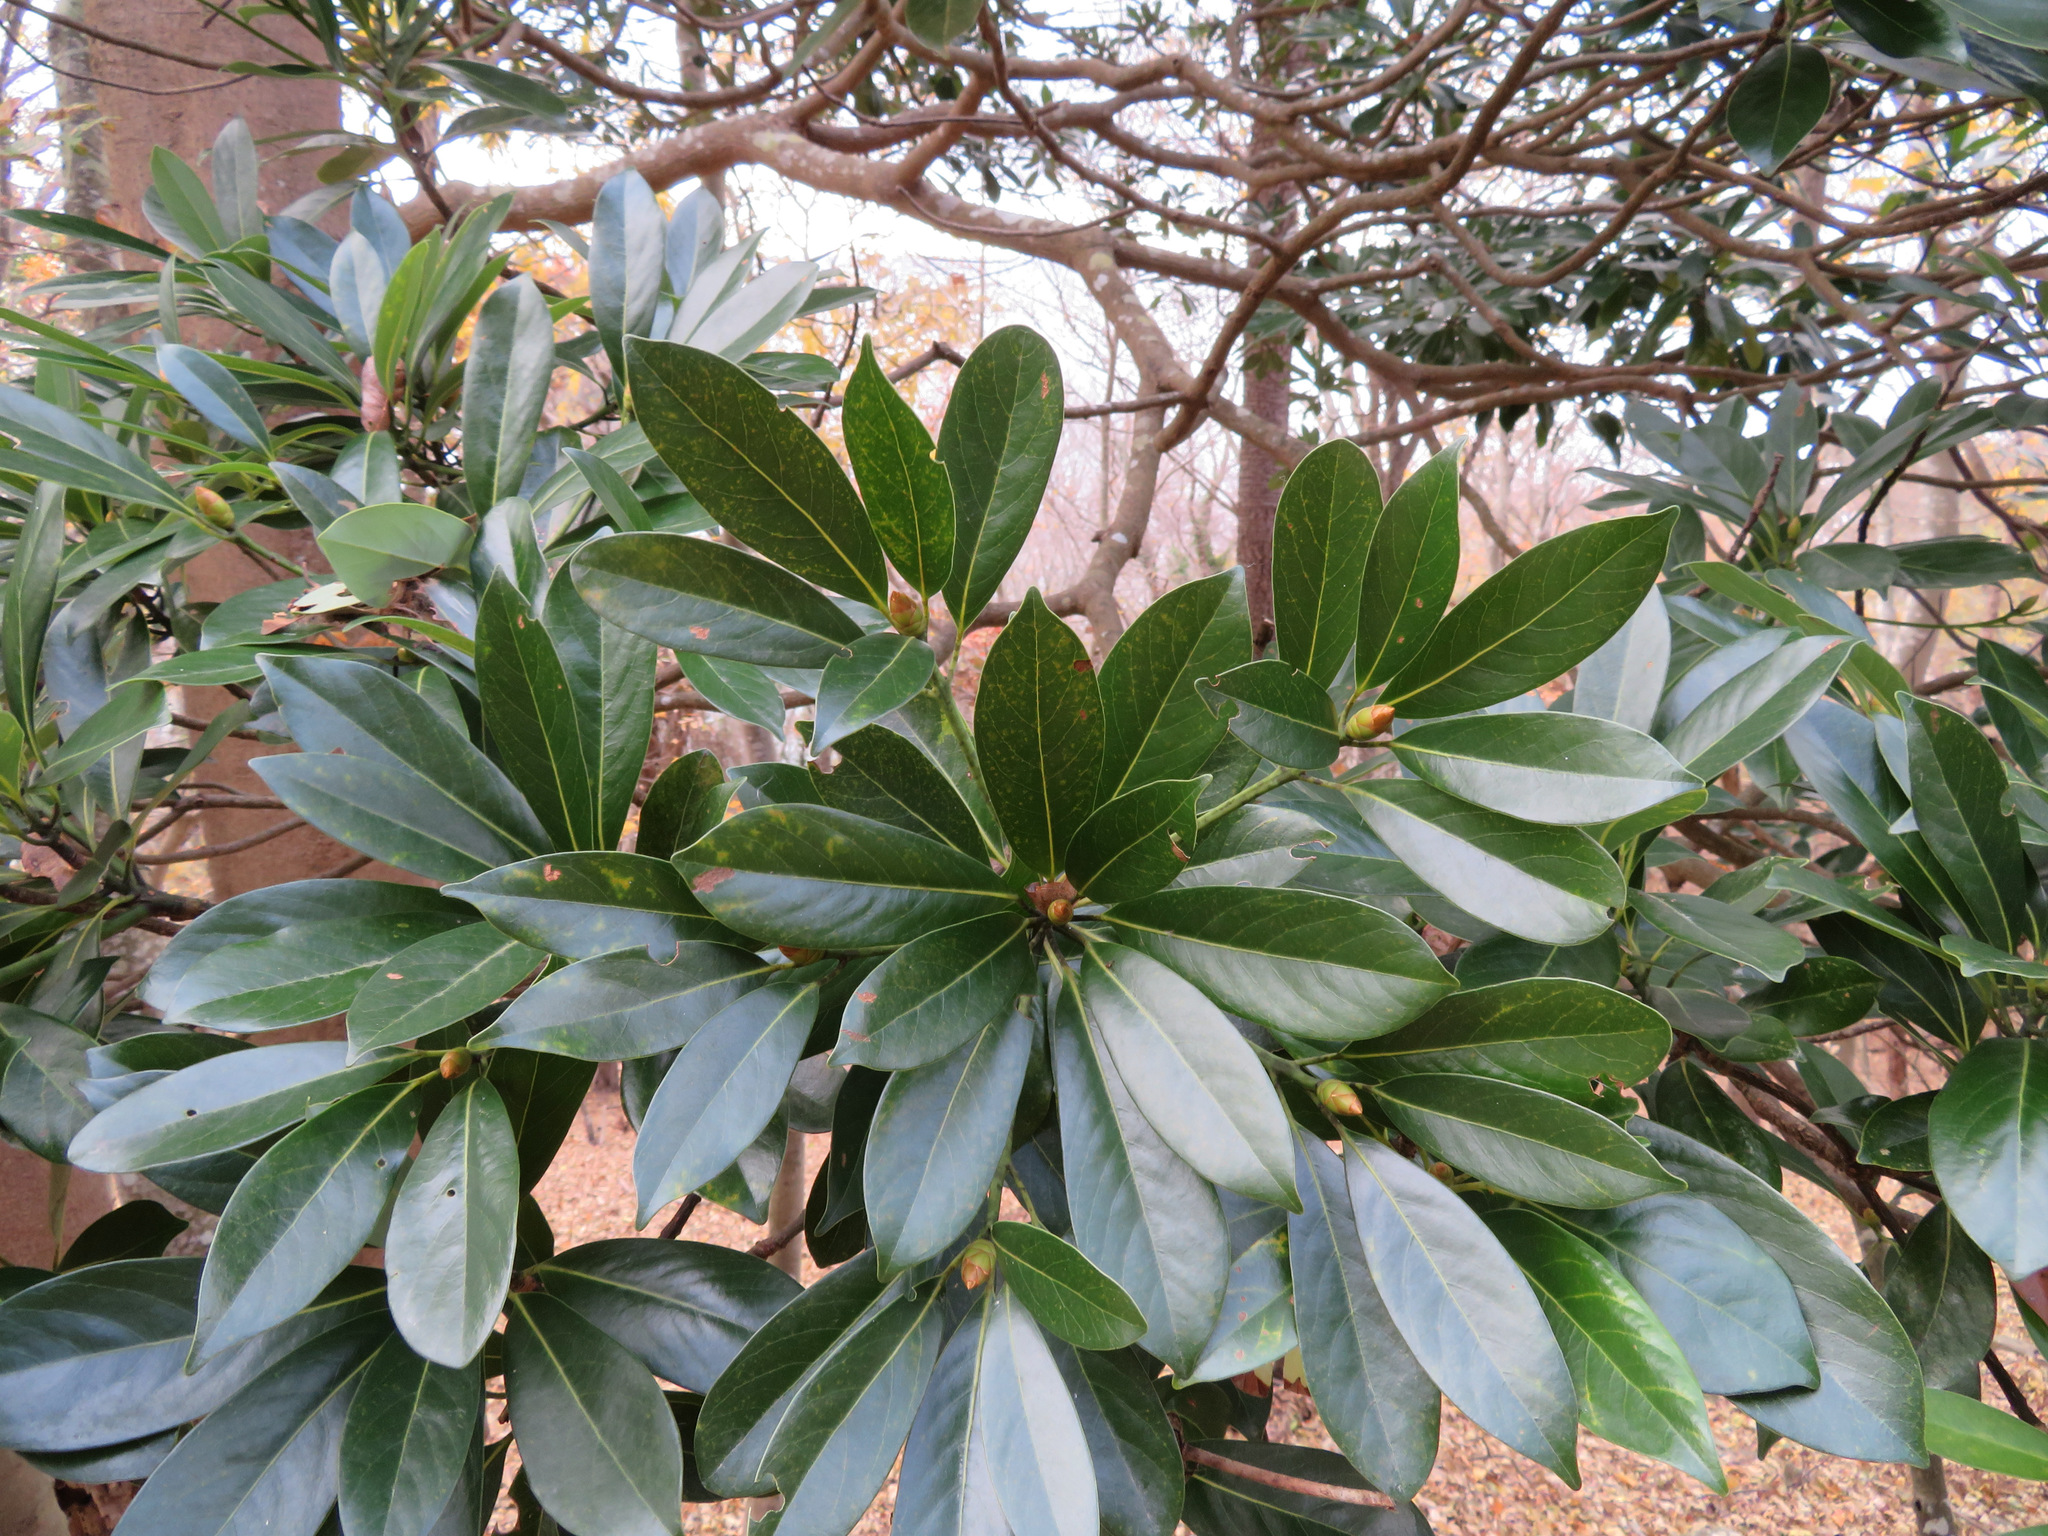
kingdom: Plantae
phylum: Tracheophyta
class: Magnoliopsida
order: Laurales
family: Lauraceae
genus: Machilus
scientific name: Machilus thunbergii
